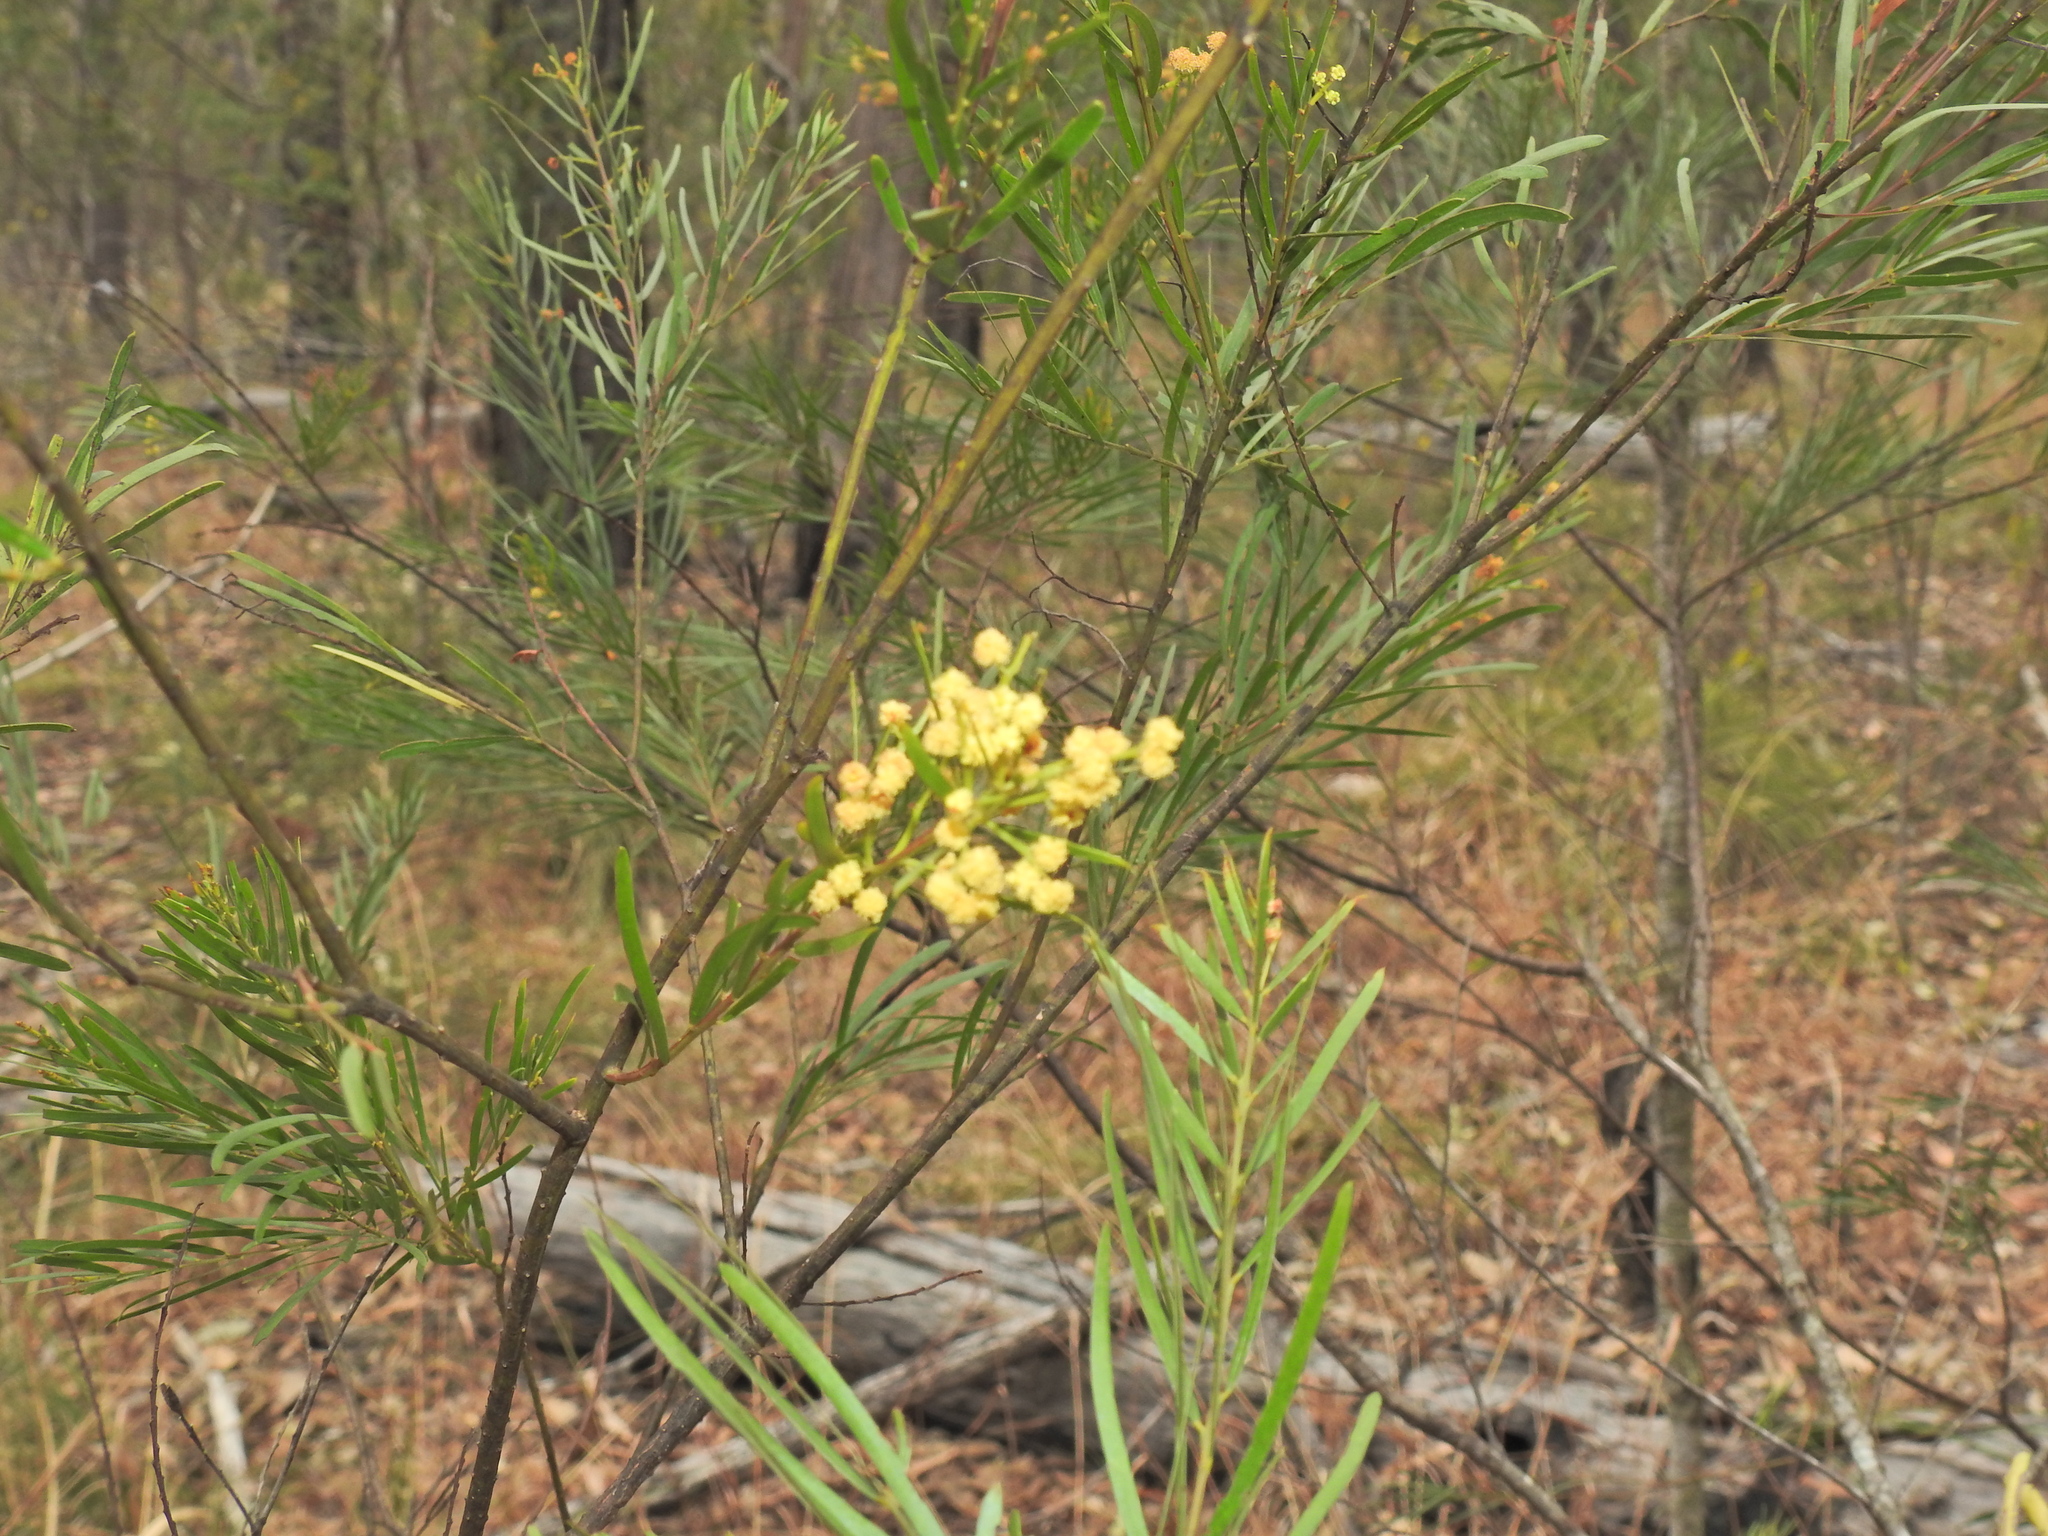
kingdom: Plantae
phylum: Tracheophyta
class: Magnoliopsida
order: Fabales
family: Fabaceae
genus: Acacia
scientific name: Acacia fimbriata
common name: Brisbane golden wattle
